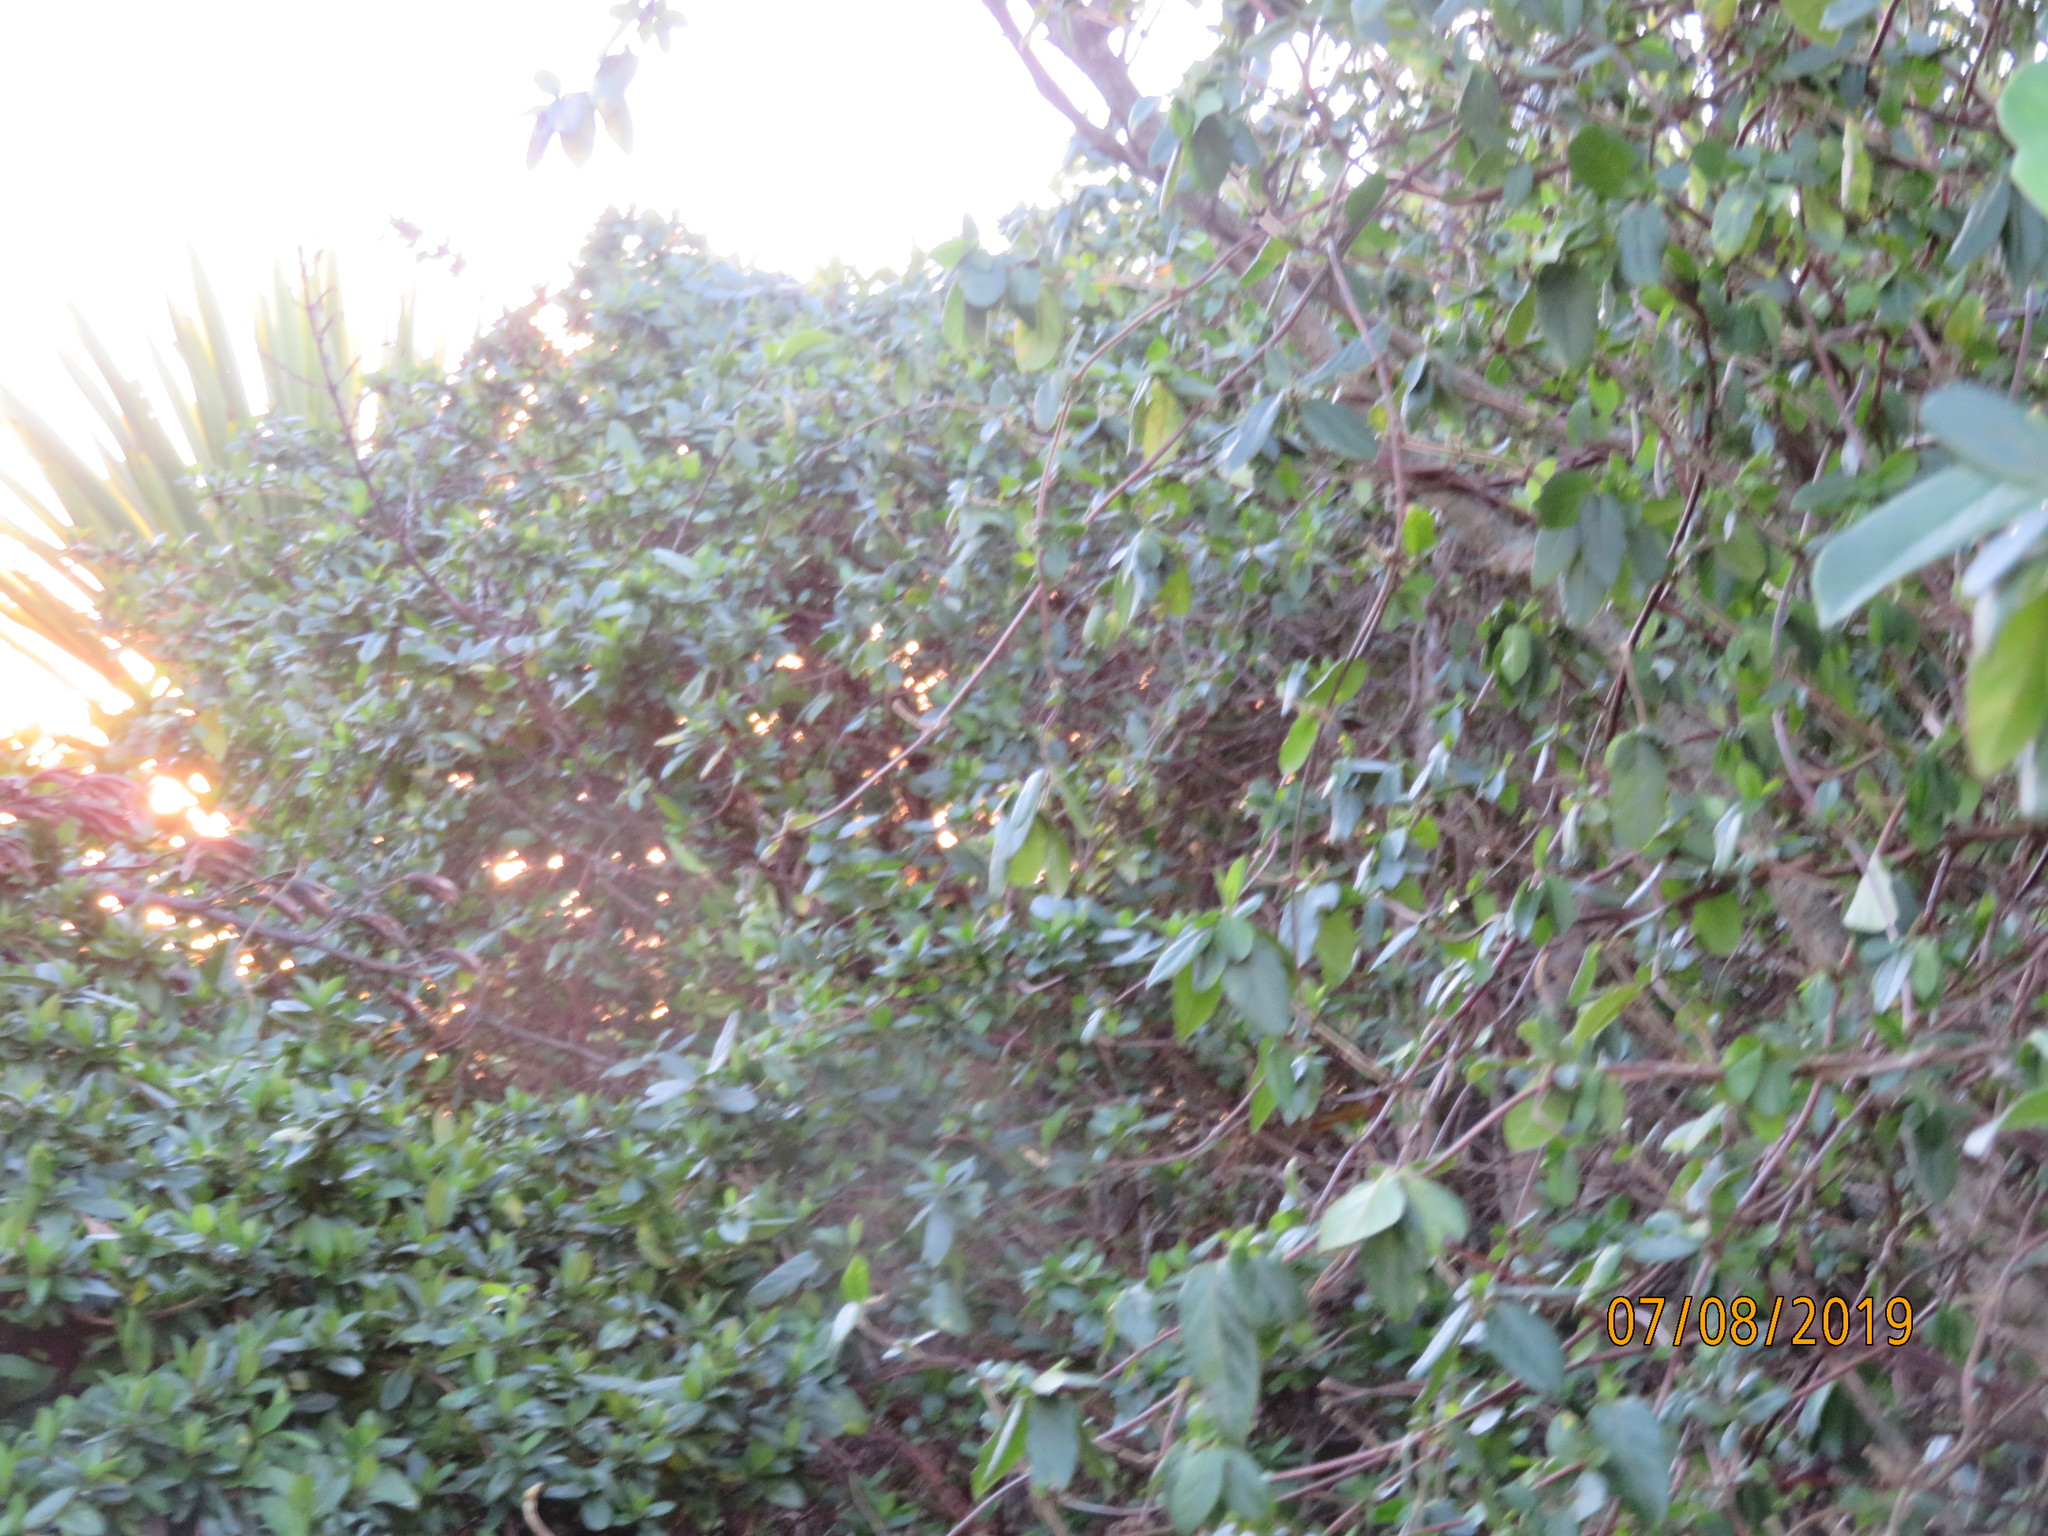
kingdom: Plantae
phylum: Tracheophyta
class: Magnoliopsida
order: Dipsacales
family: Caprifoliaceae
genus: Lonicera
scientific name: Lonicera japonica
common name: Japanese honeysuckle
